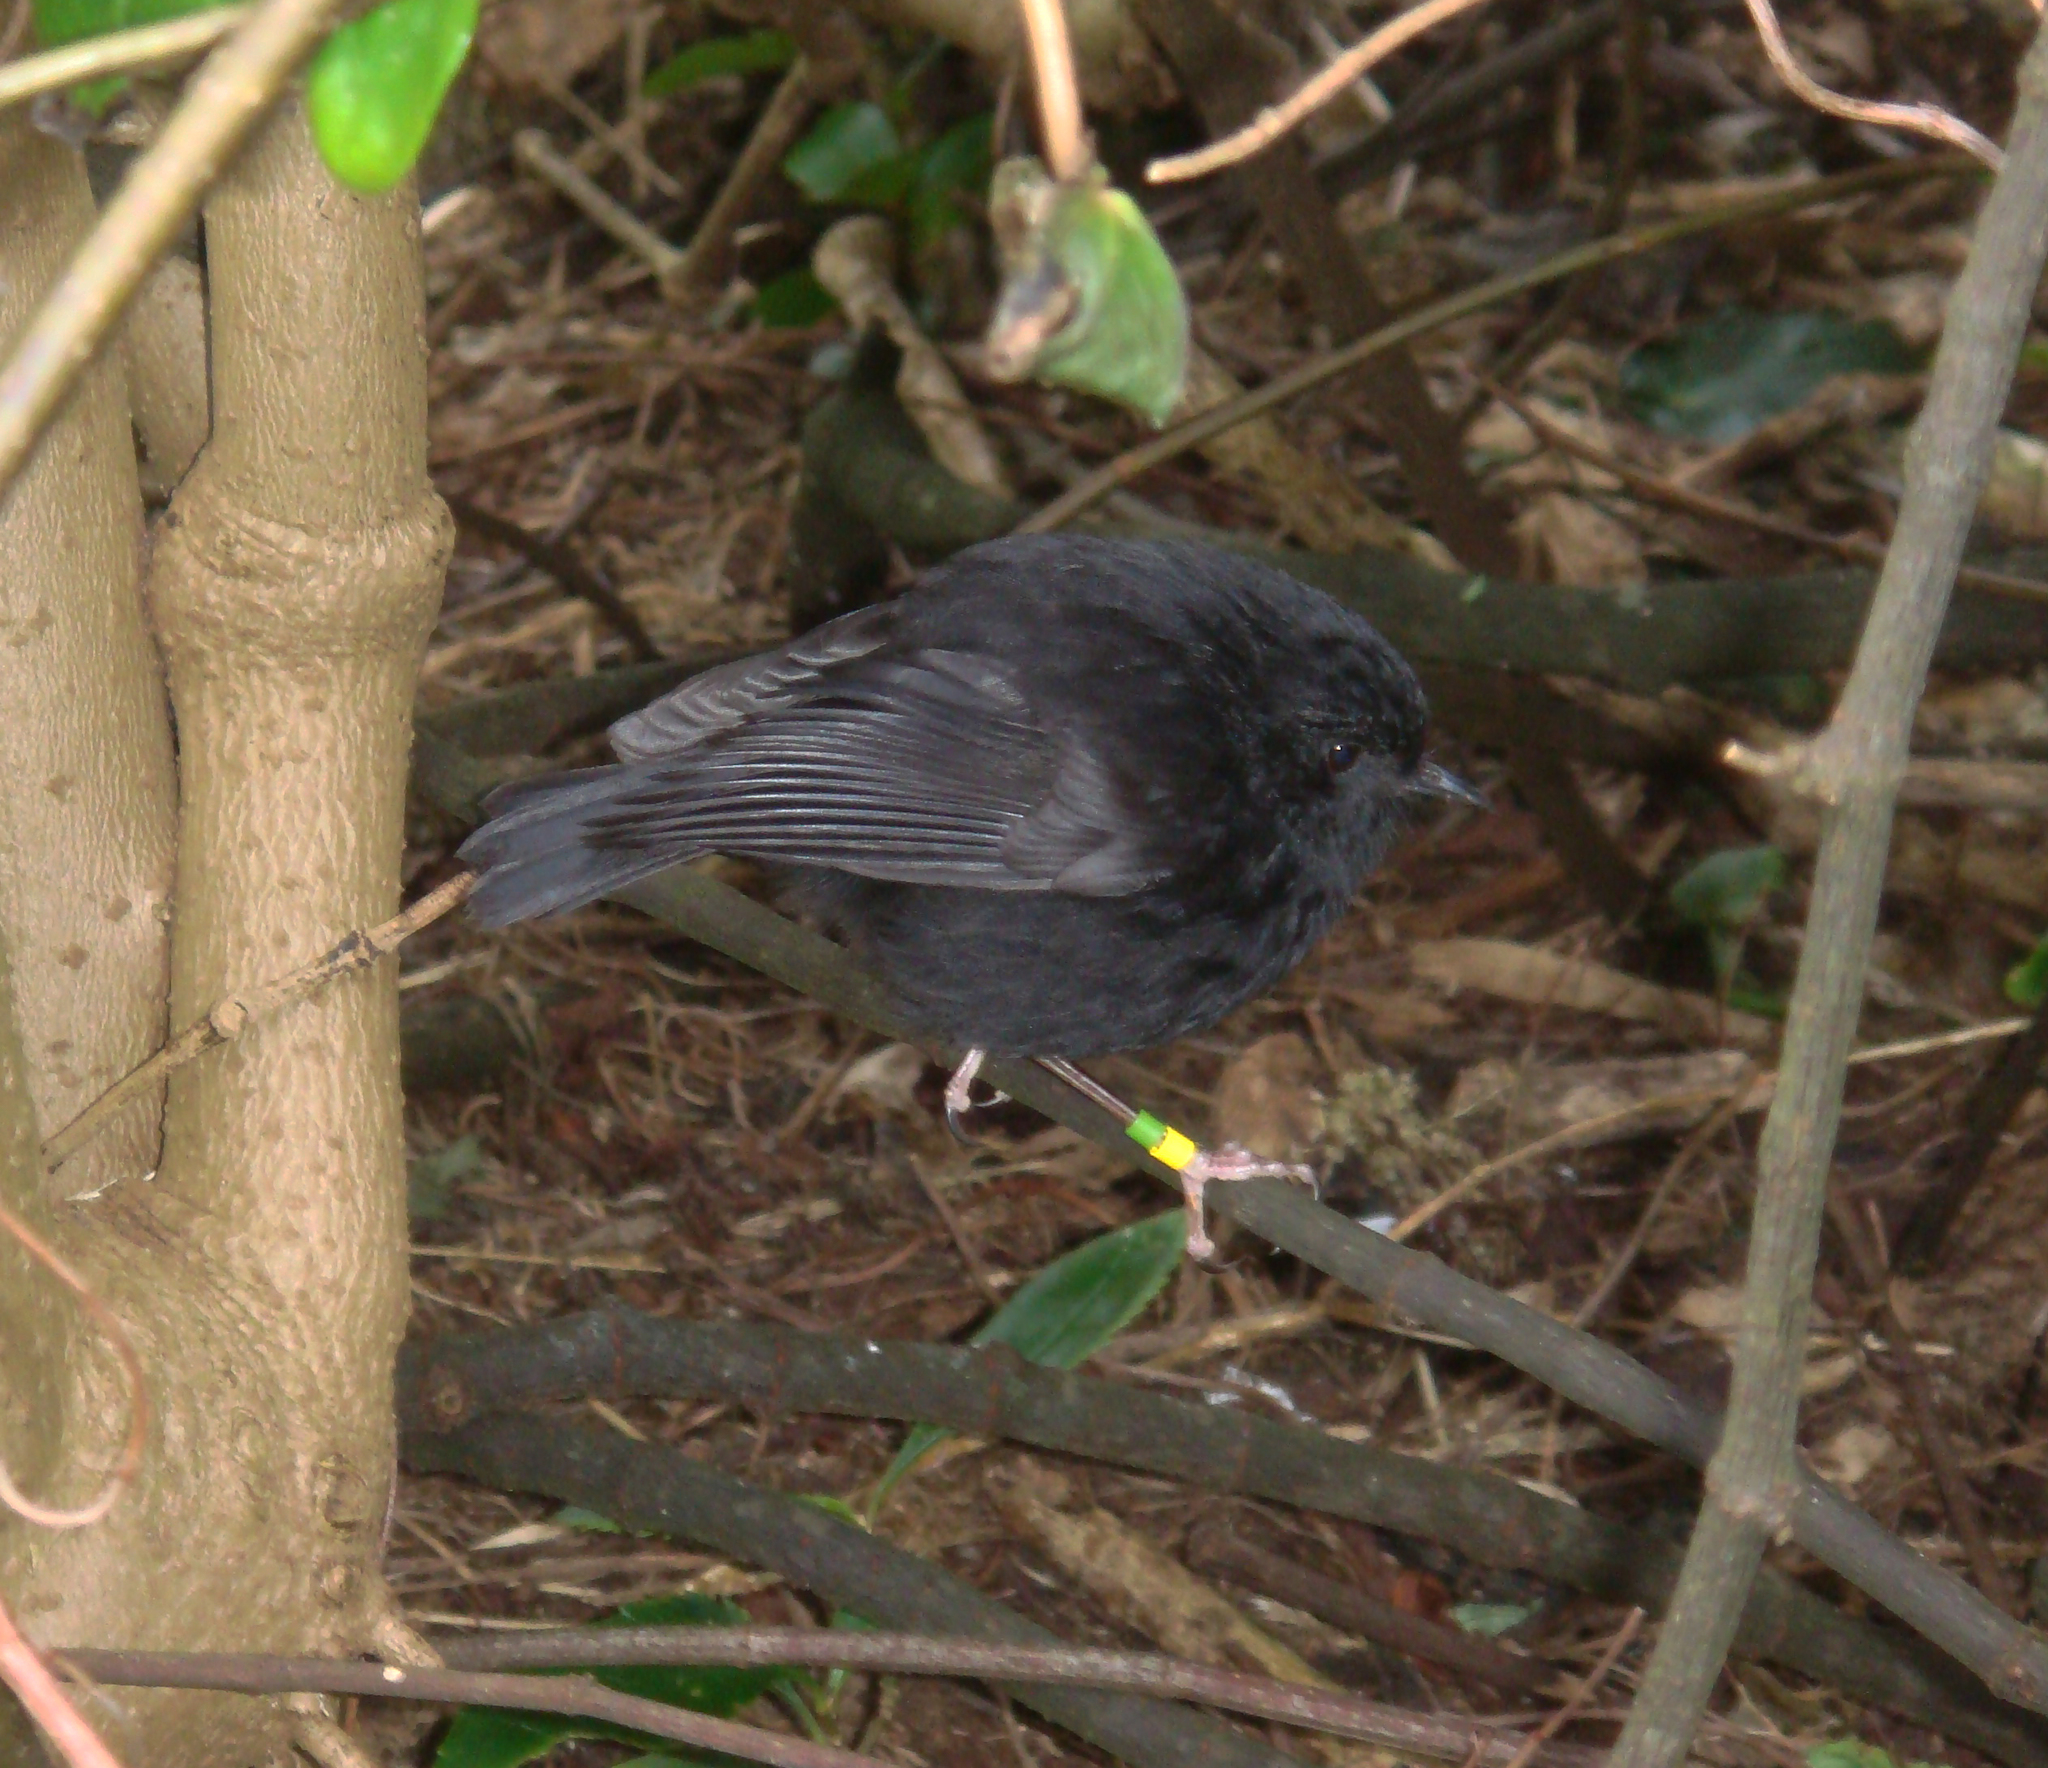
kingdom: Animalia
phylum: Chordata
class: Aves
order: Passeriformes
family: Petroicidae
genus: Petroica
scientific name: Petroica traversi
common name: Black robin
